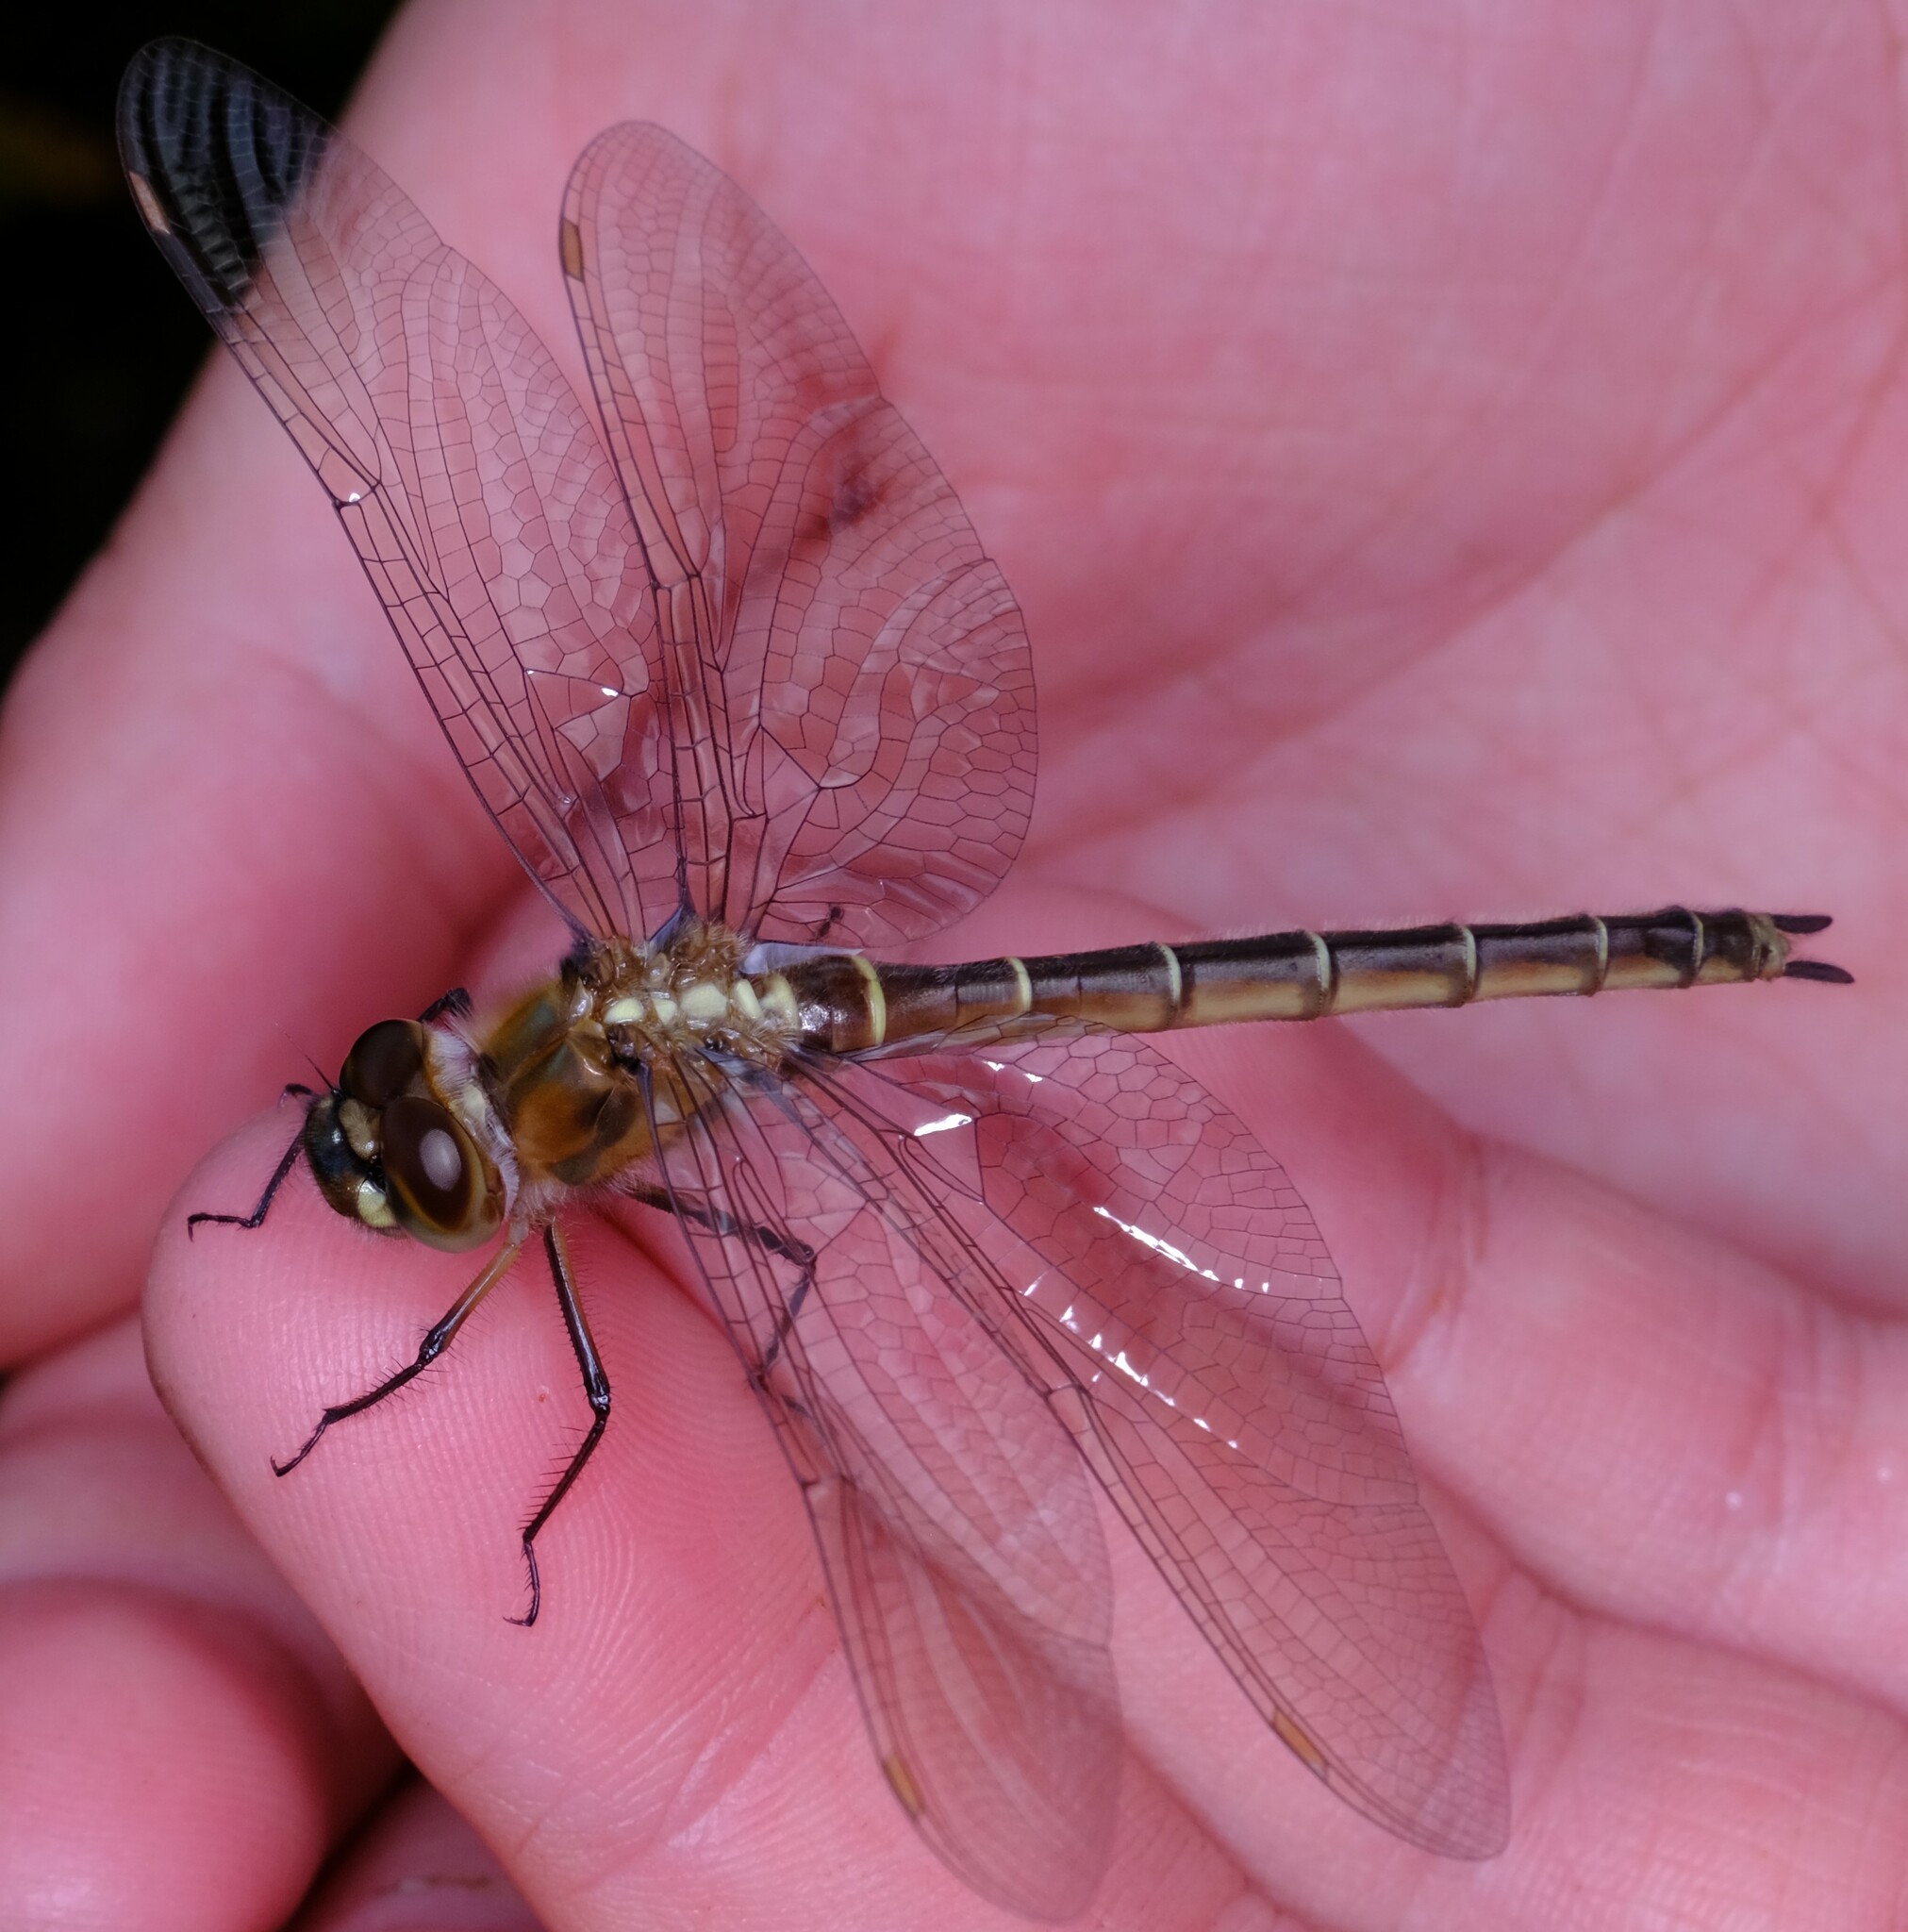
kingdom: Animalia
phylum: Arthropoda
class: Insecta
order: Odonata
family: Corduliidae
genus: Procordulia
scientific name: Procordulia jacksoniensis
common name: Eastern swamp emerald
